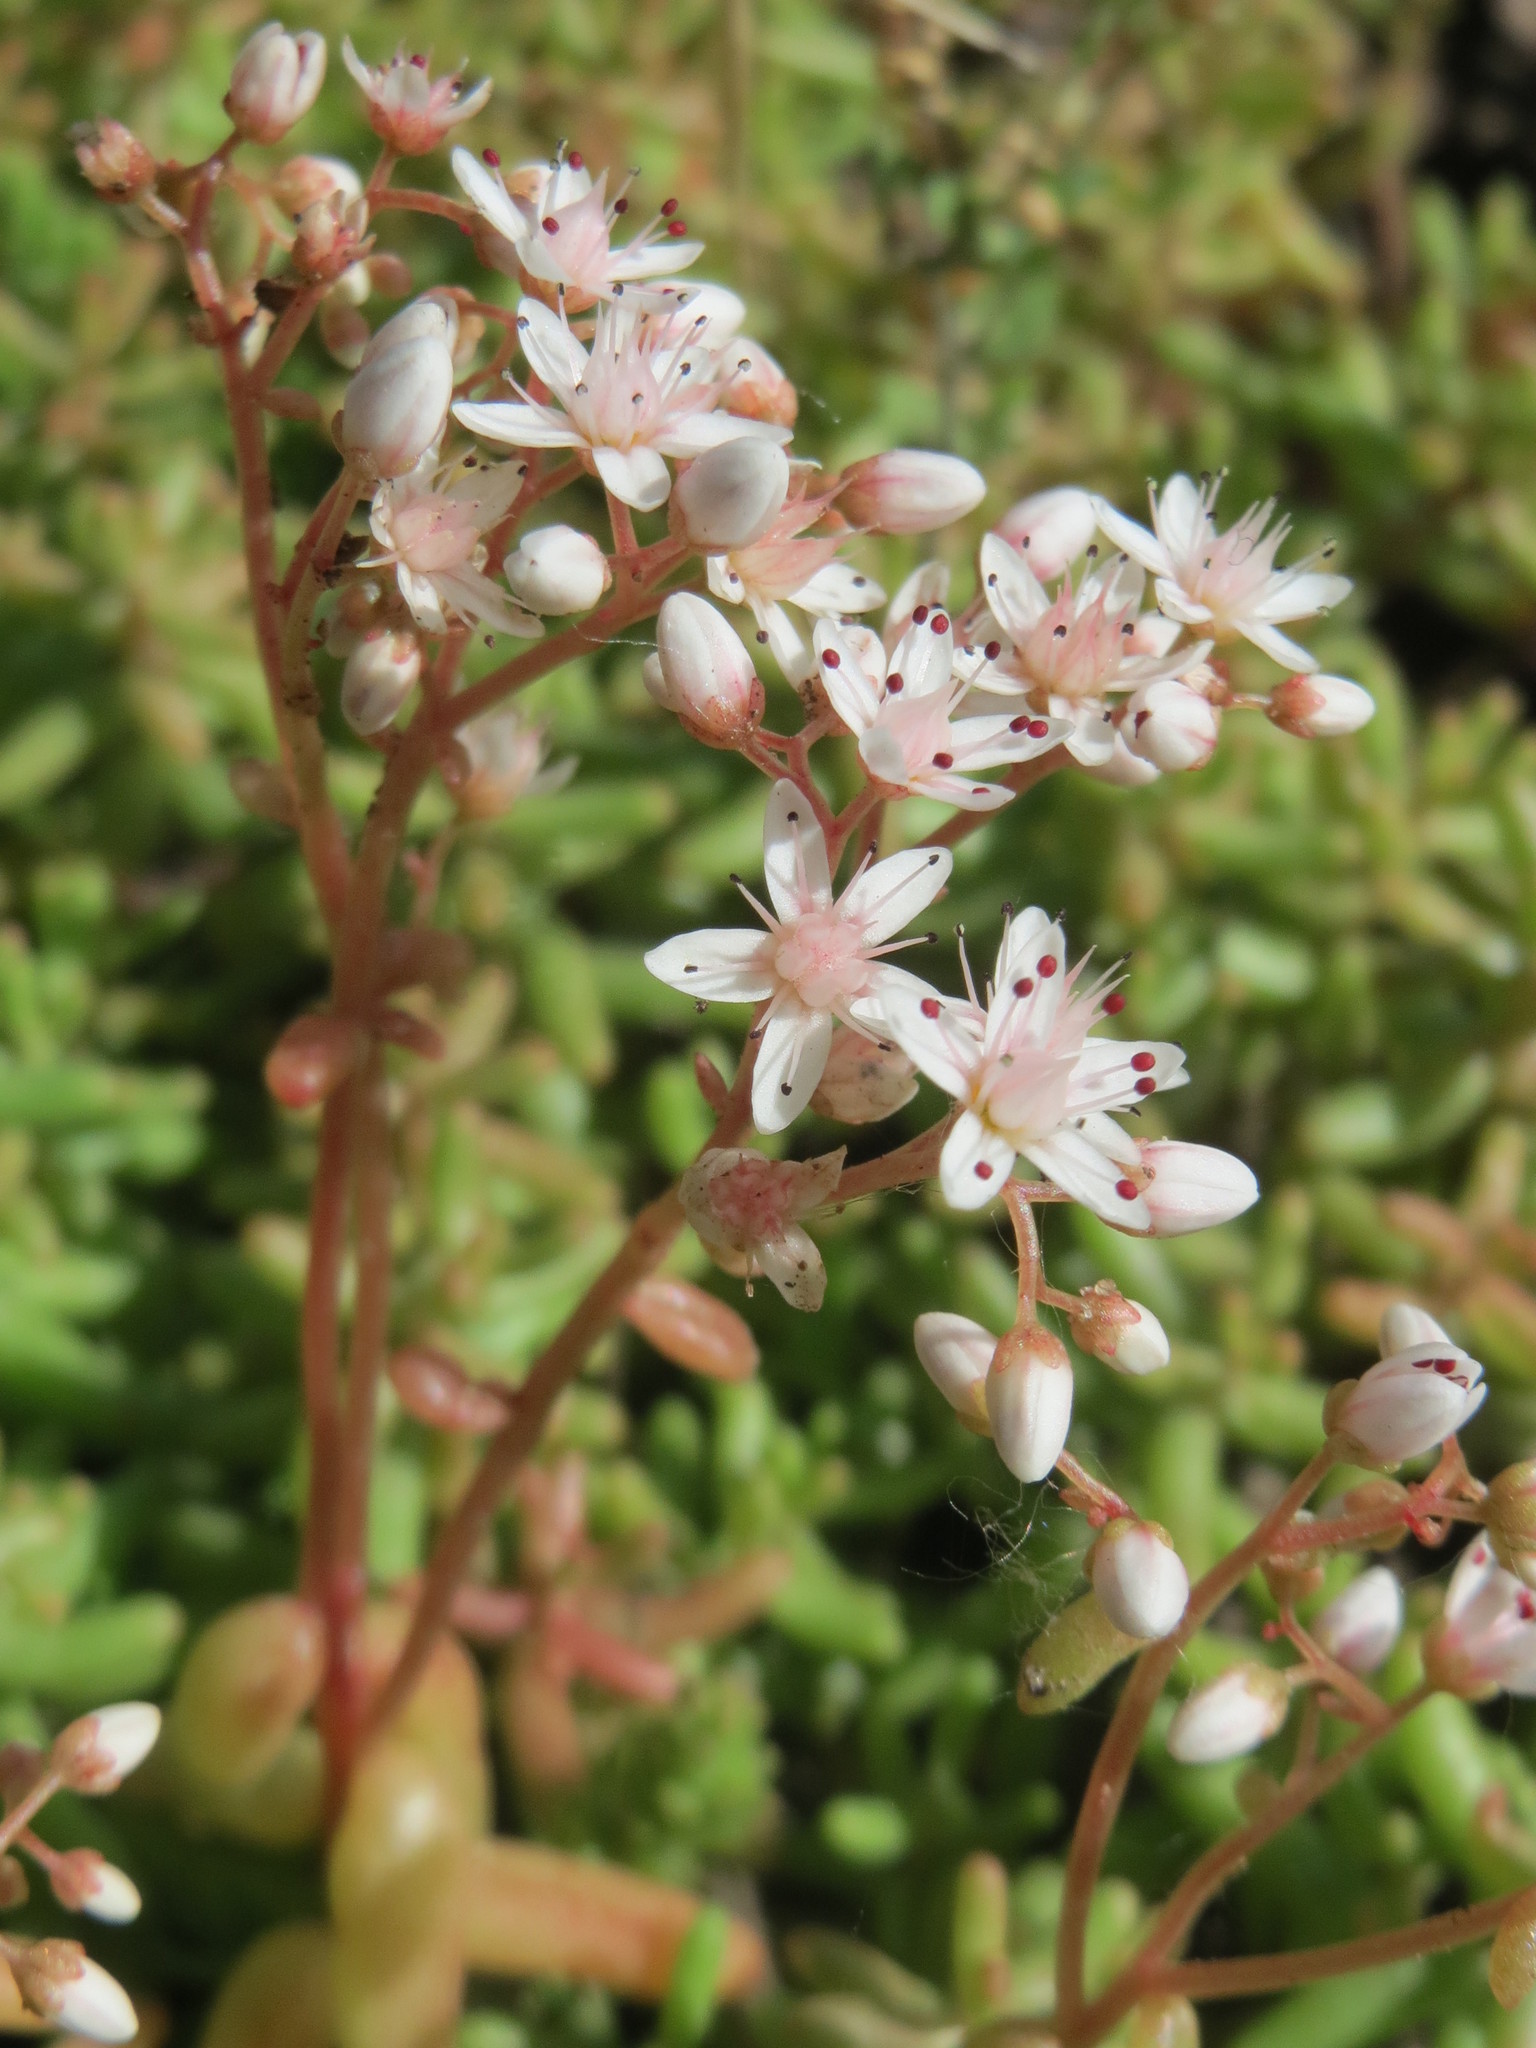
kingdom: Plantae
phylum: Tracheophyta
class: Magnoliopsida
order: Saxifragales
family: Crassulaceae
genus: Sedum
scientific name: Sedum album
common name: White stonecrop
